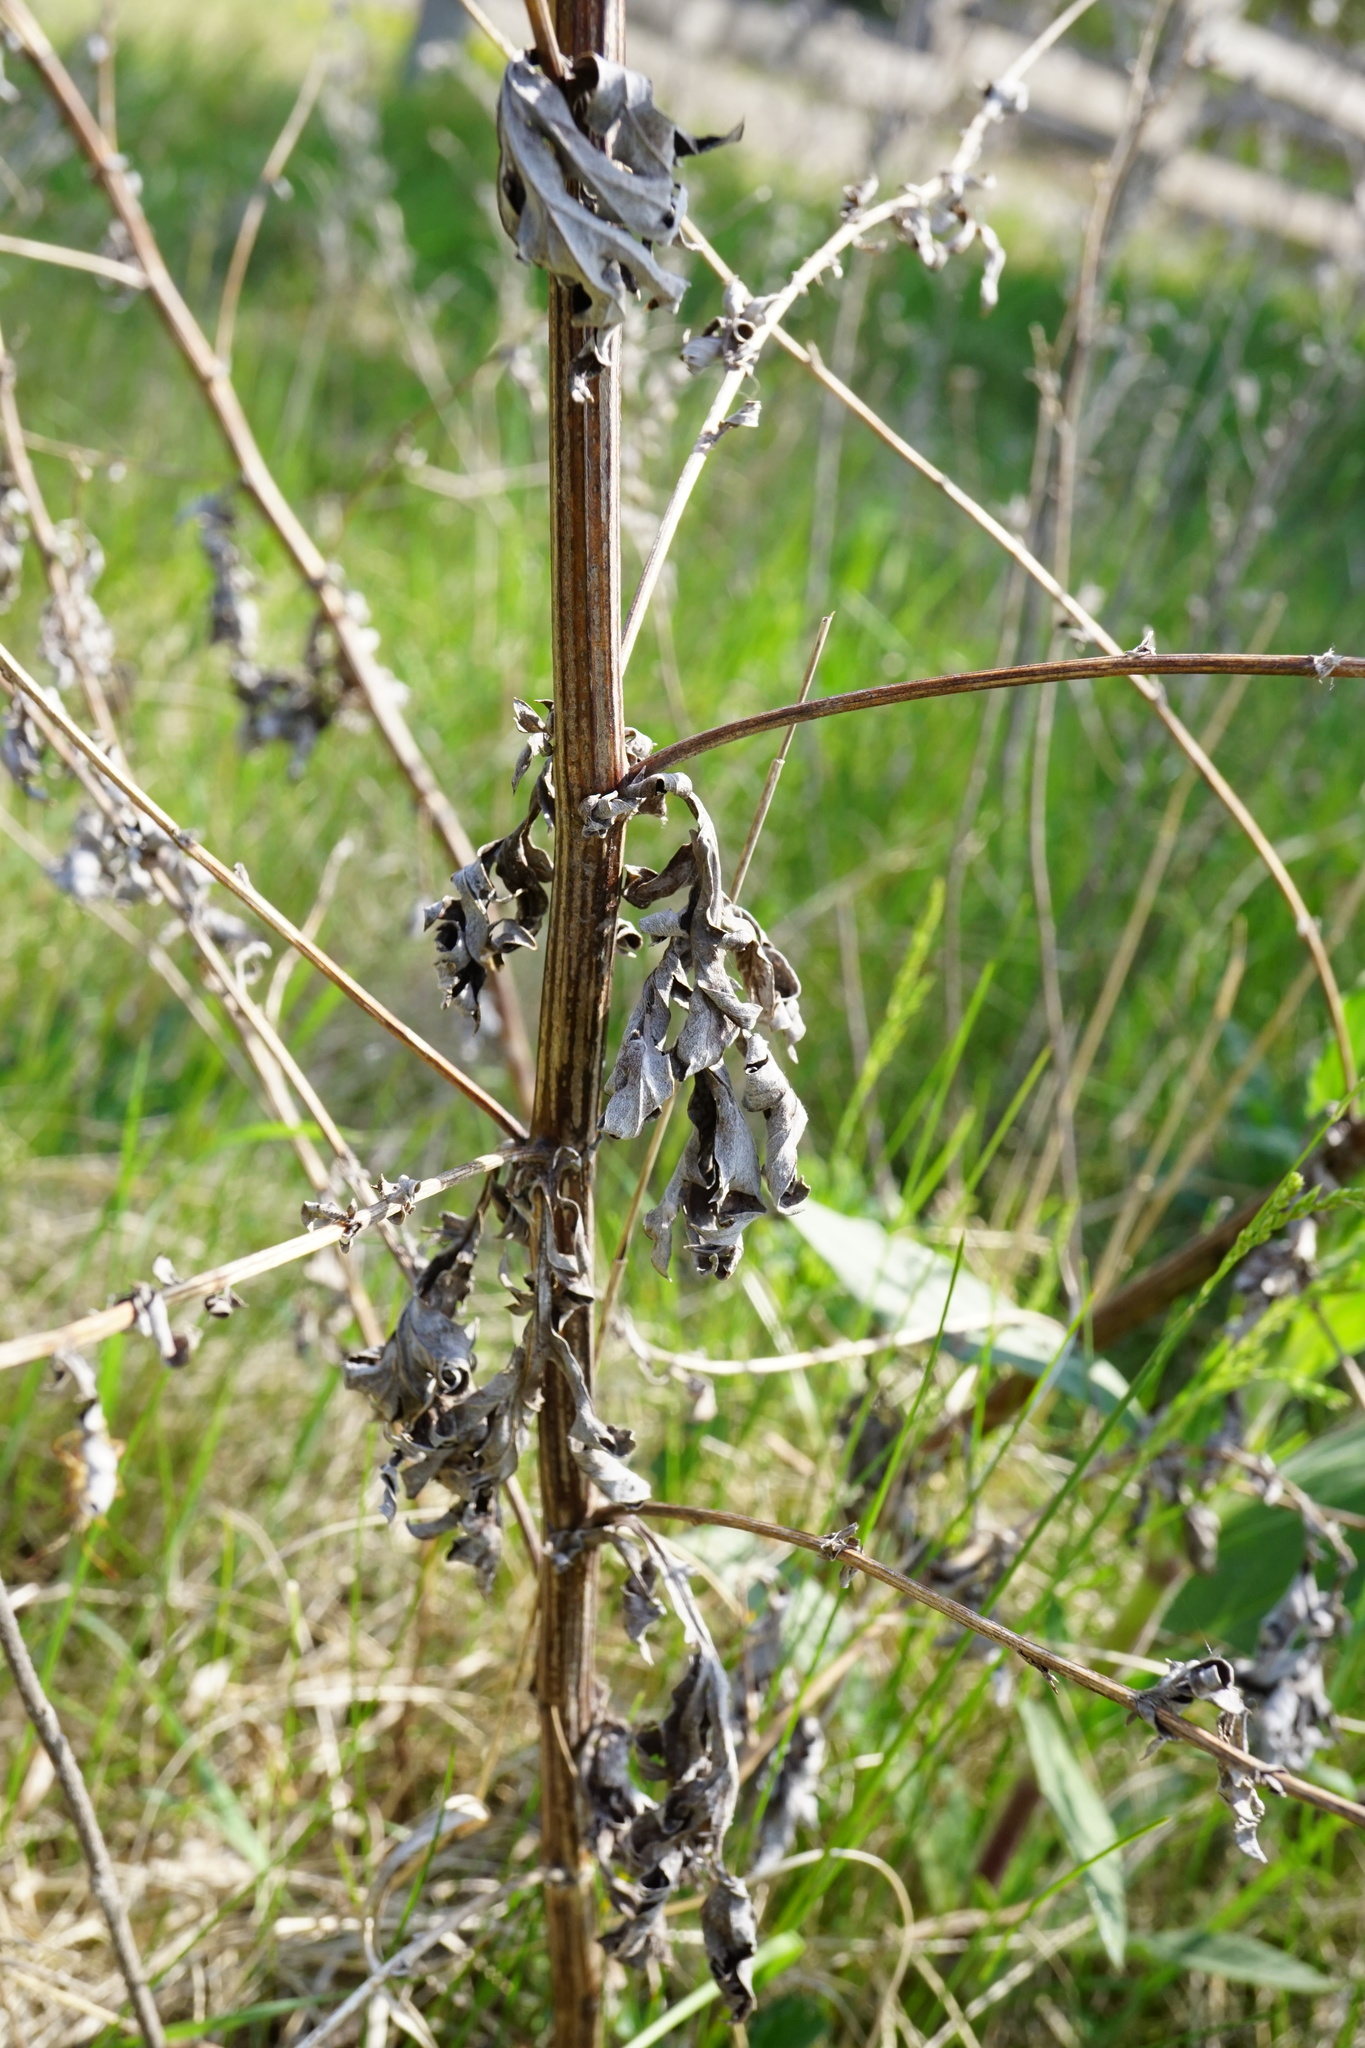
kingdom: Plantae
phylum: Tracheophyta
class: Magnoliopsida
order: Asterales
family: Asteraceae
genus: Artemisia
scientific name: Artemisia vulgaris
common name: Mugwort
